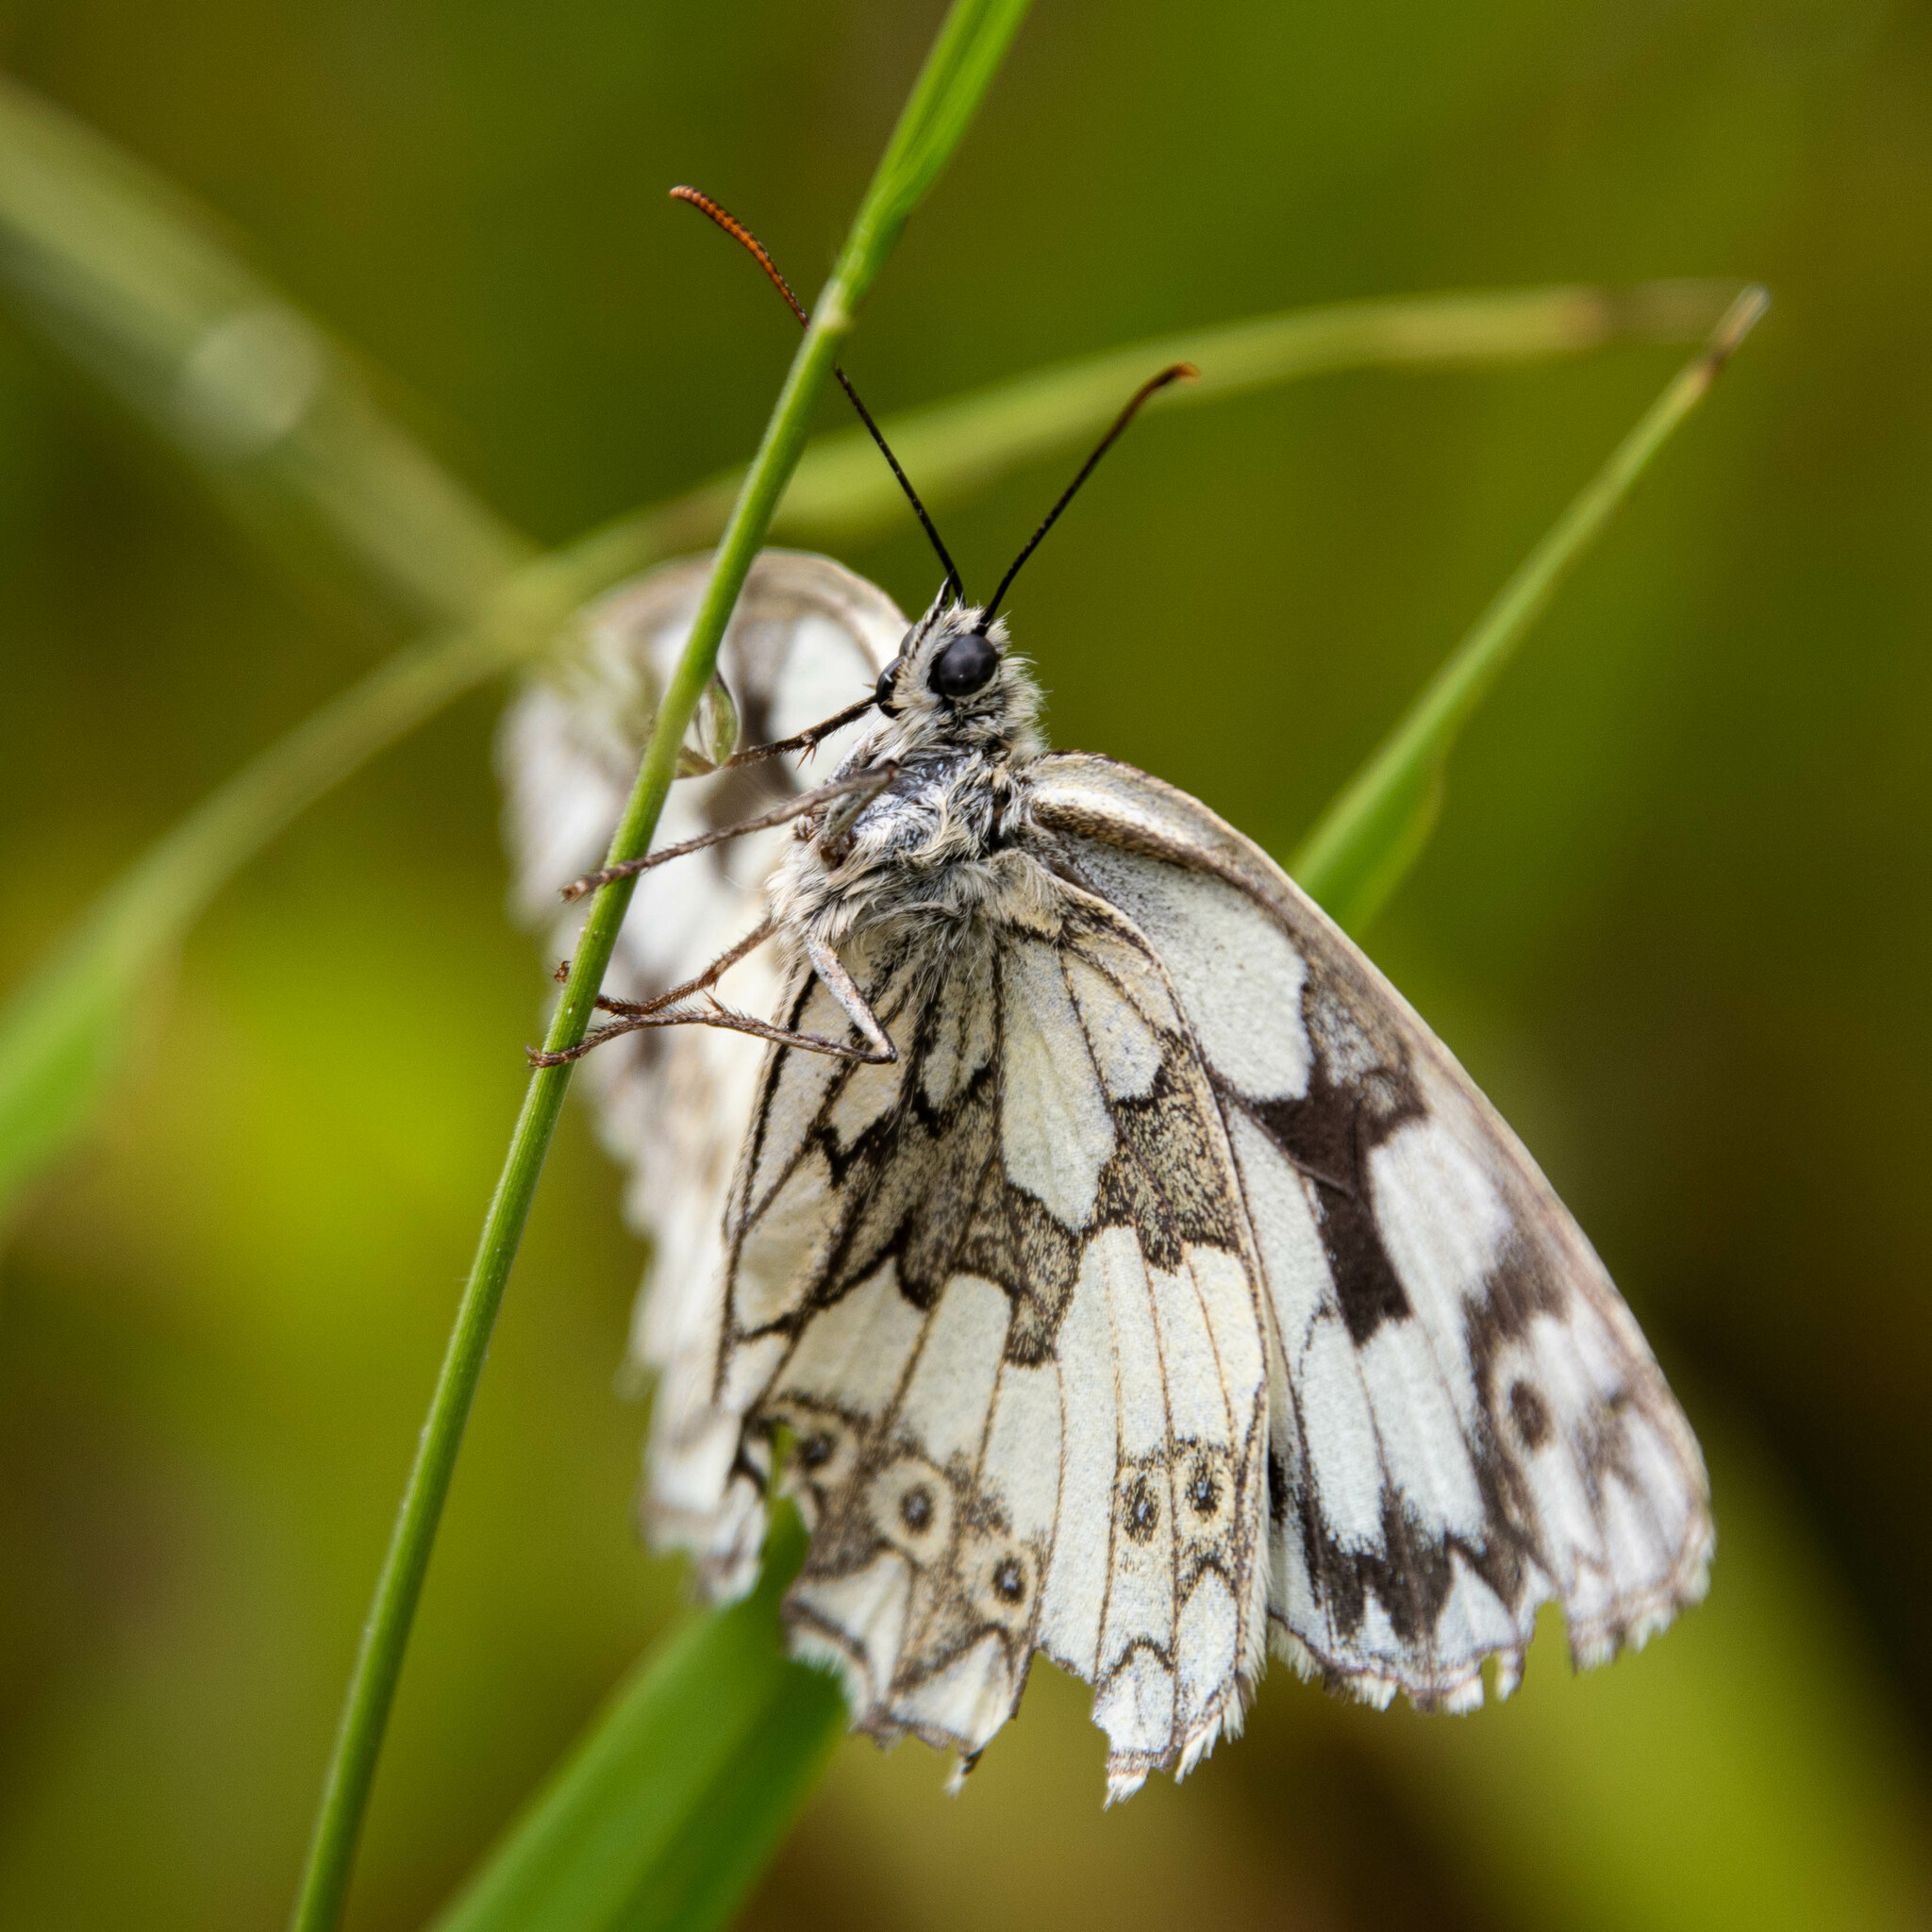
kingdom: Animalia
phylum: Arthropoda
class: Insecta
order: Lepidoptera
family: Nymphalidae
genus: Melanargia
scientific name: Melanargia galathea
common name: Marbled white
